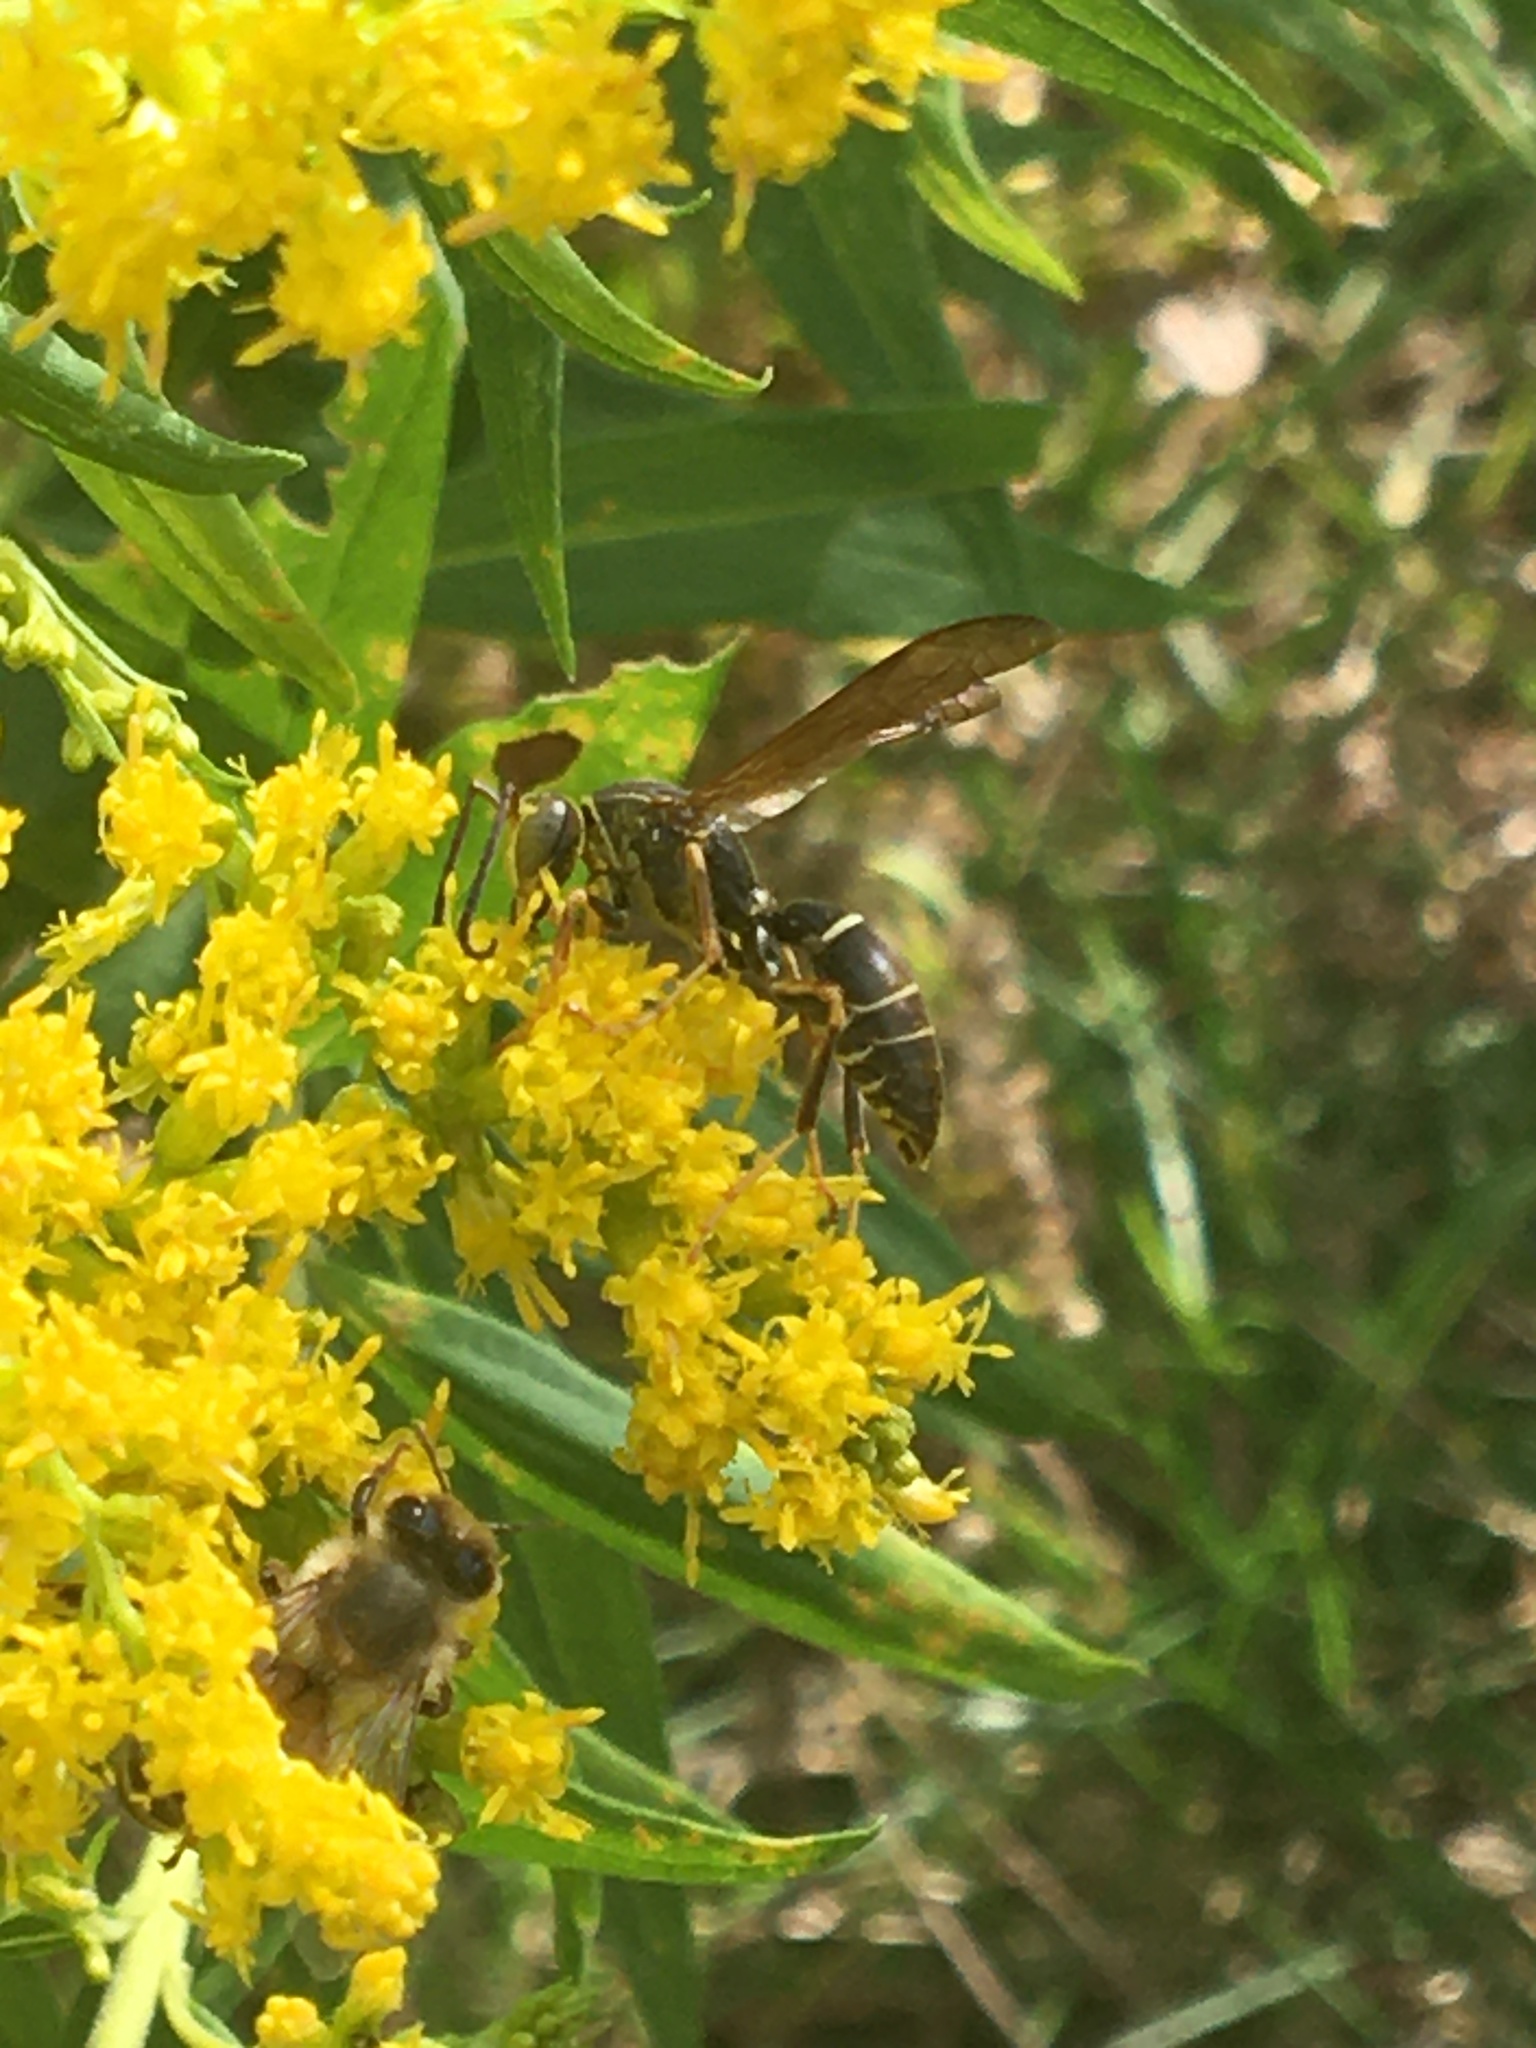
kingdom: Animalia
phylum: Arthropoda
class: Insecta
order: Hymenoptera
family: Eumenidae
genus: Polistes
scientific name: Polistes fuscatus
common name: Dark paper wasp
